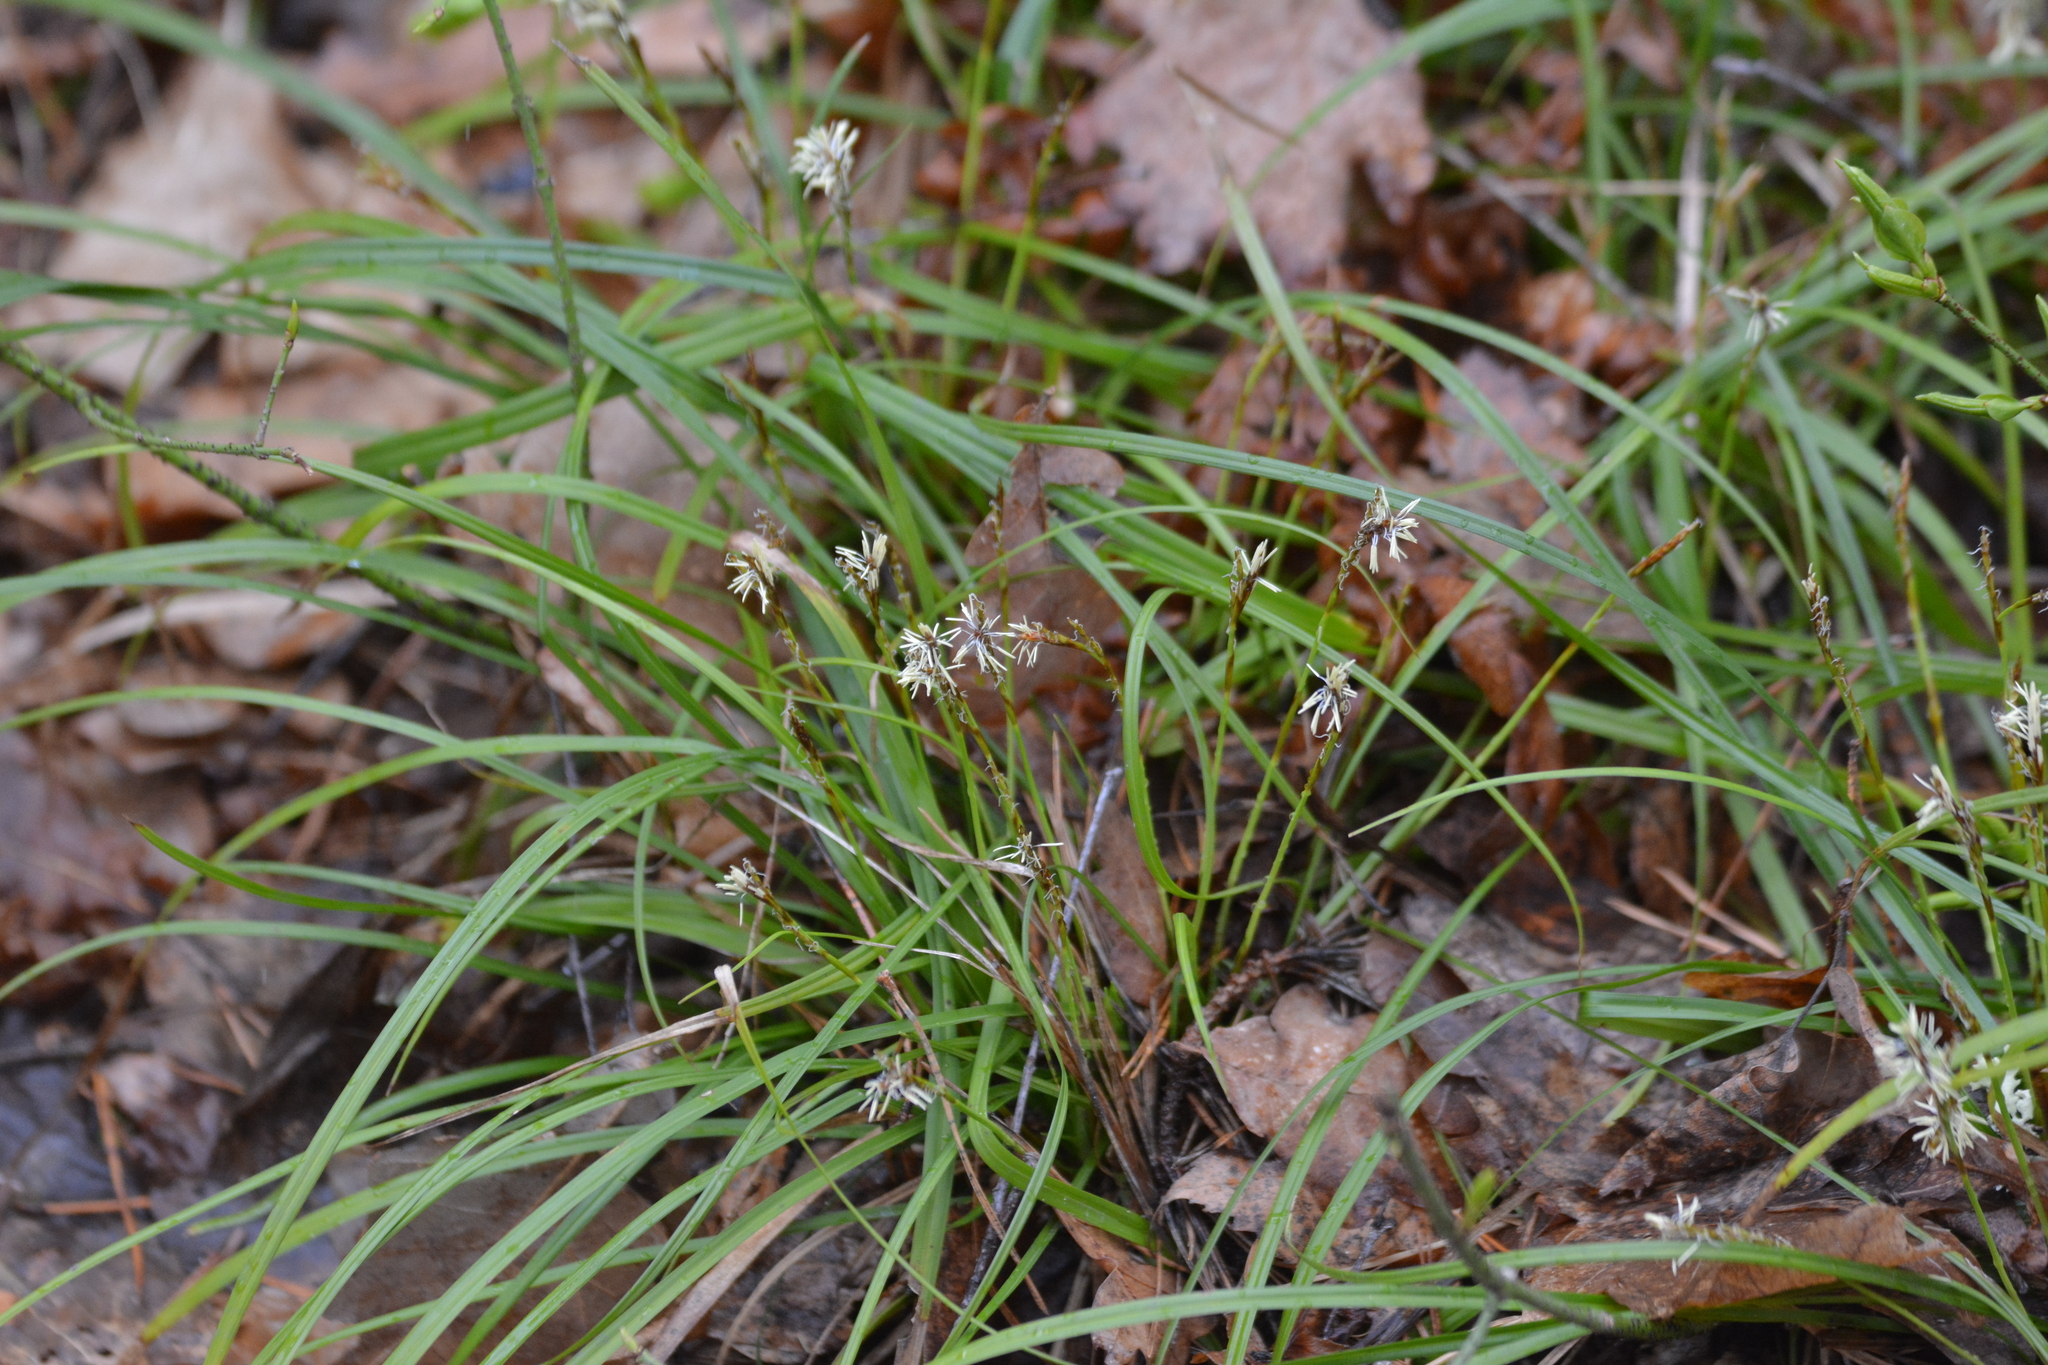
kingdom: Plantae
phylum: Tracheophyta
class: Liliopsida
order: Poales
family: Cyperaceae
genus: Carex
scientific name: Carex digitata
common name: Fingered sedge
